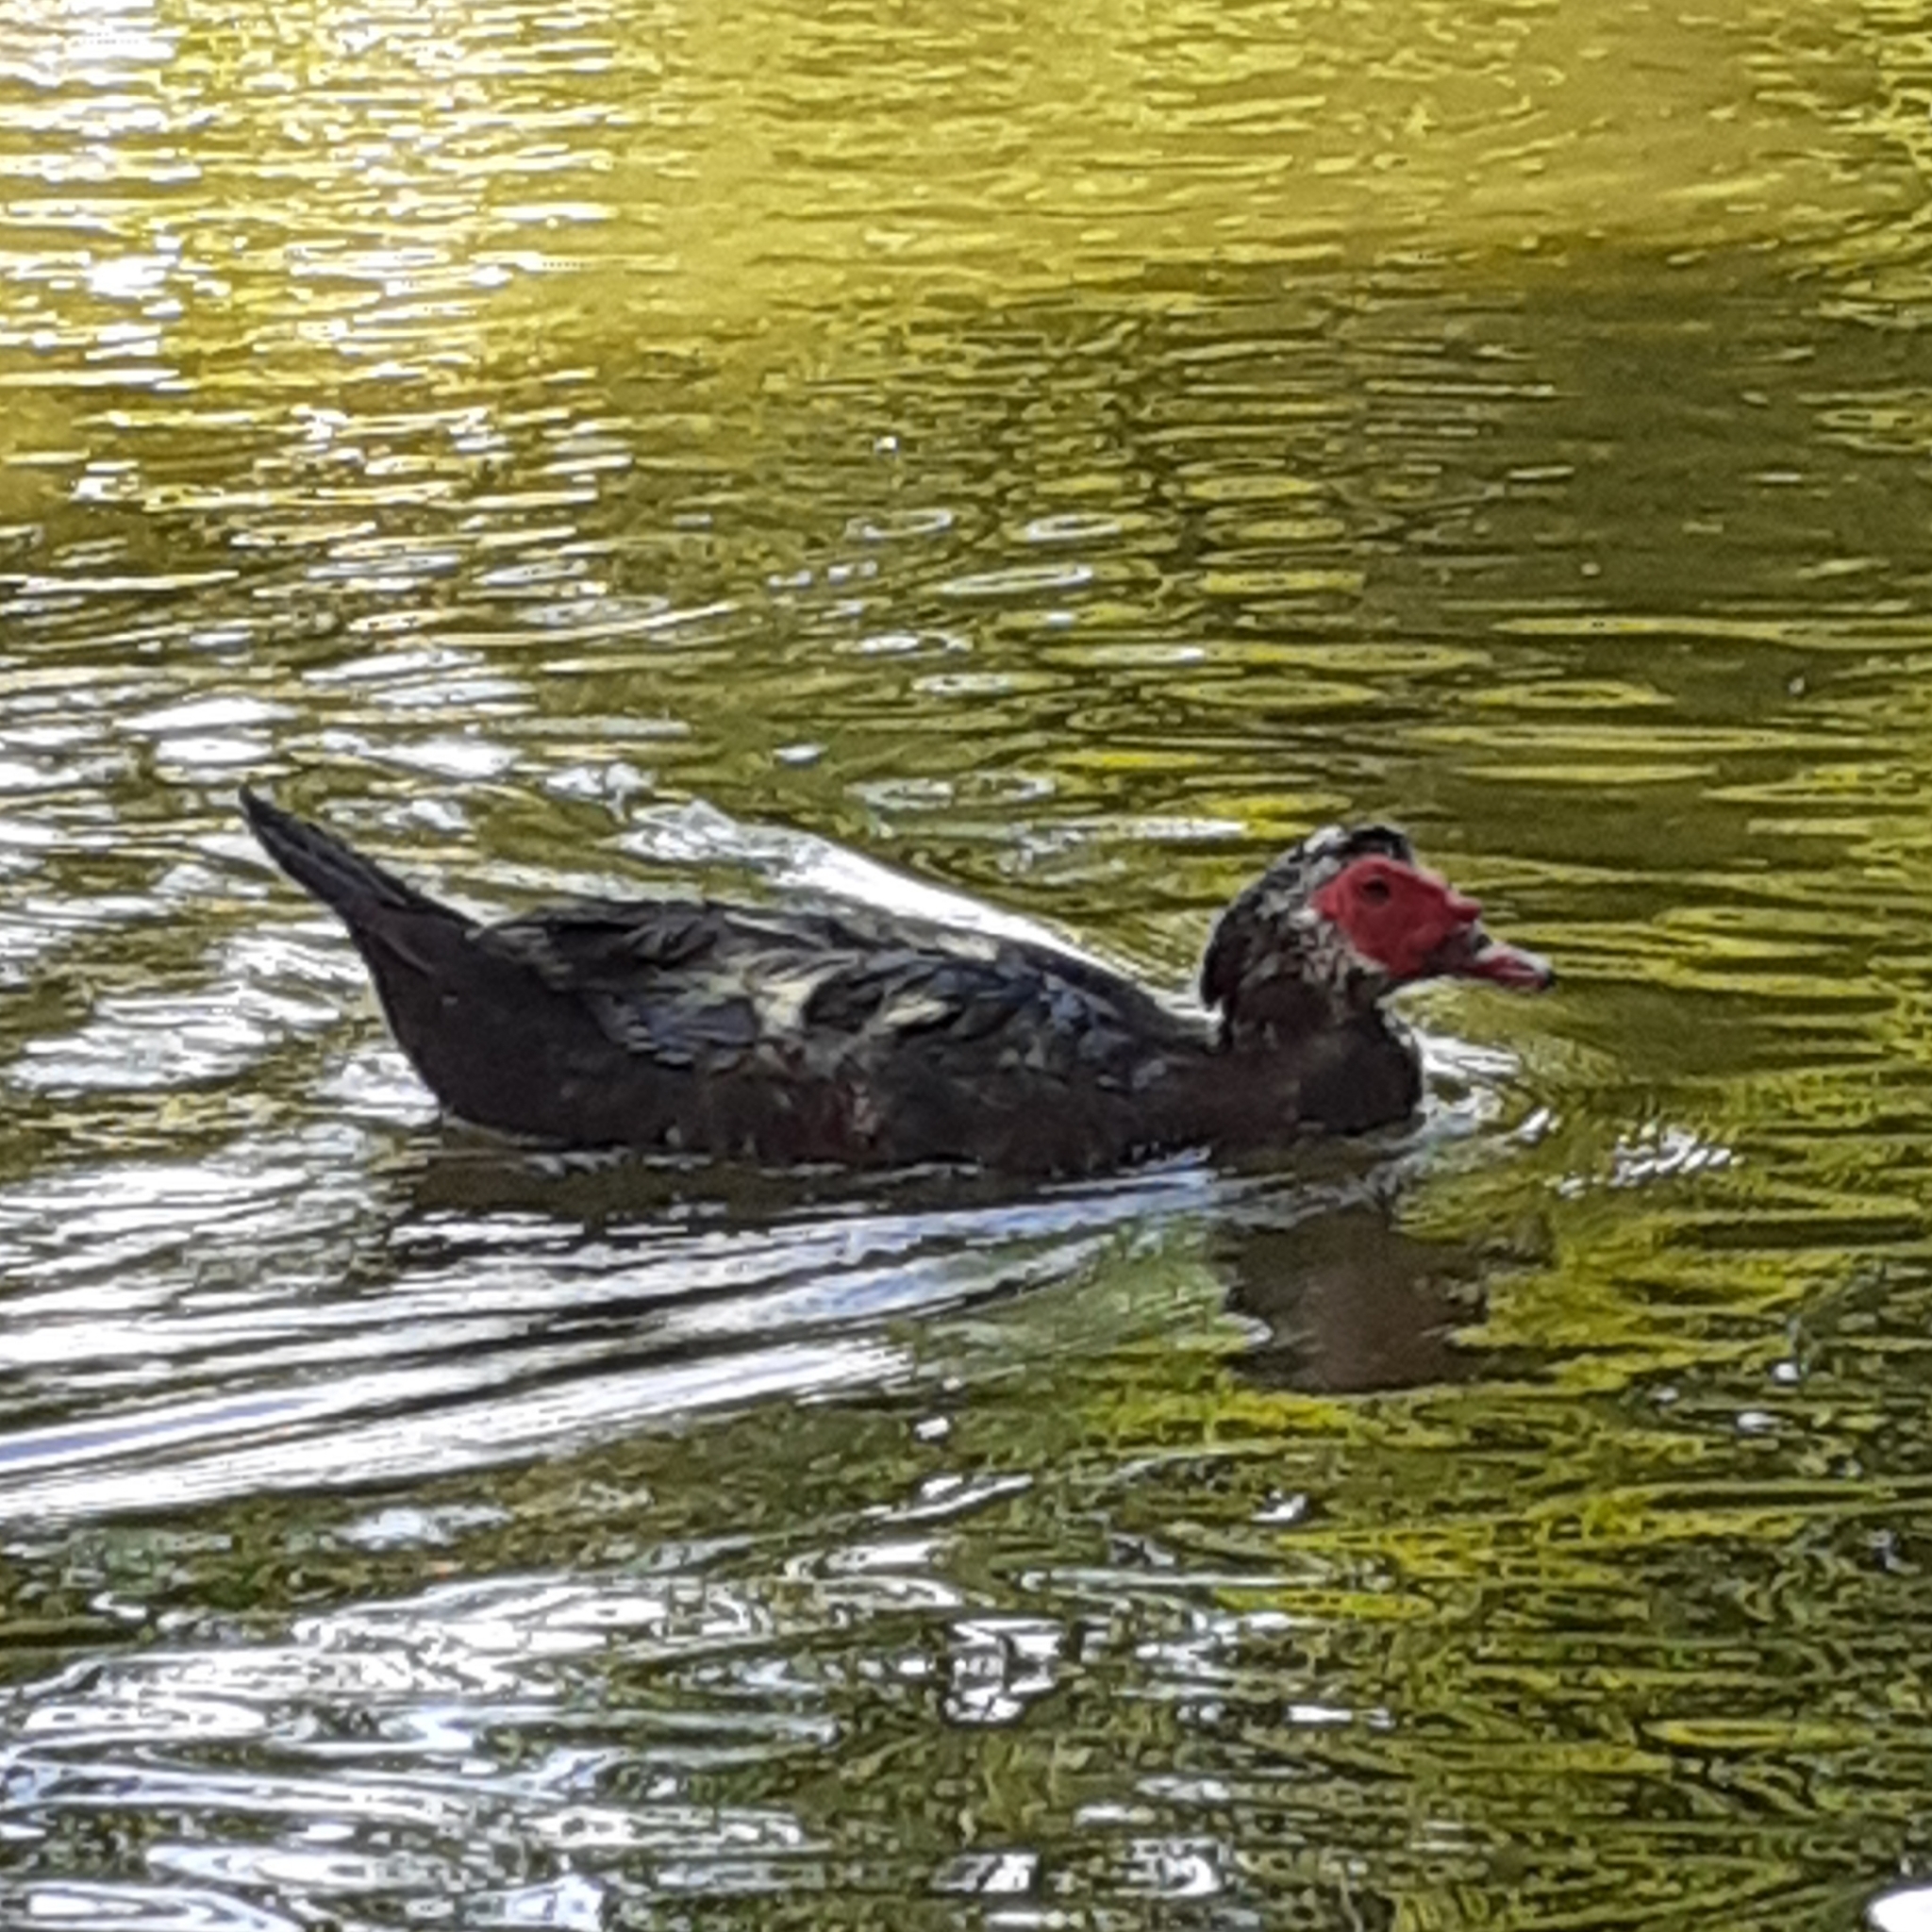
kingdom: Animalia
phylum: Chordata
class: Aves
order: Anseriformes
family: Anatidae
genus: Cairina
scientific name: Cairina moschata
